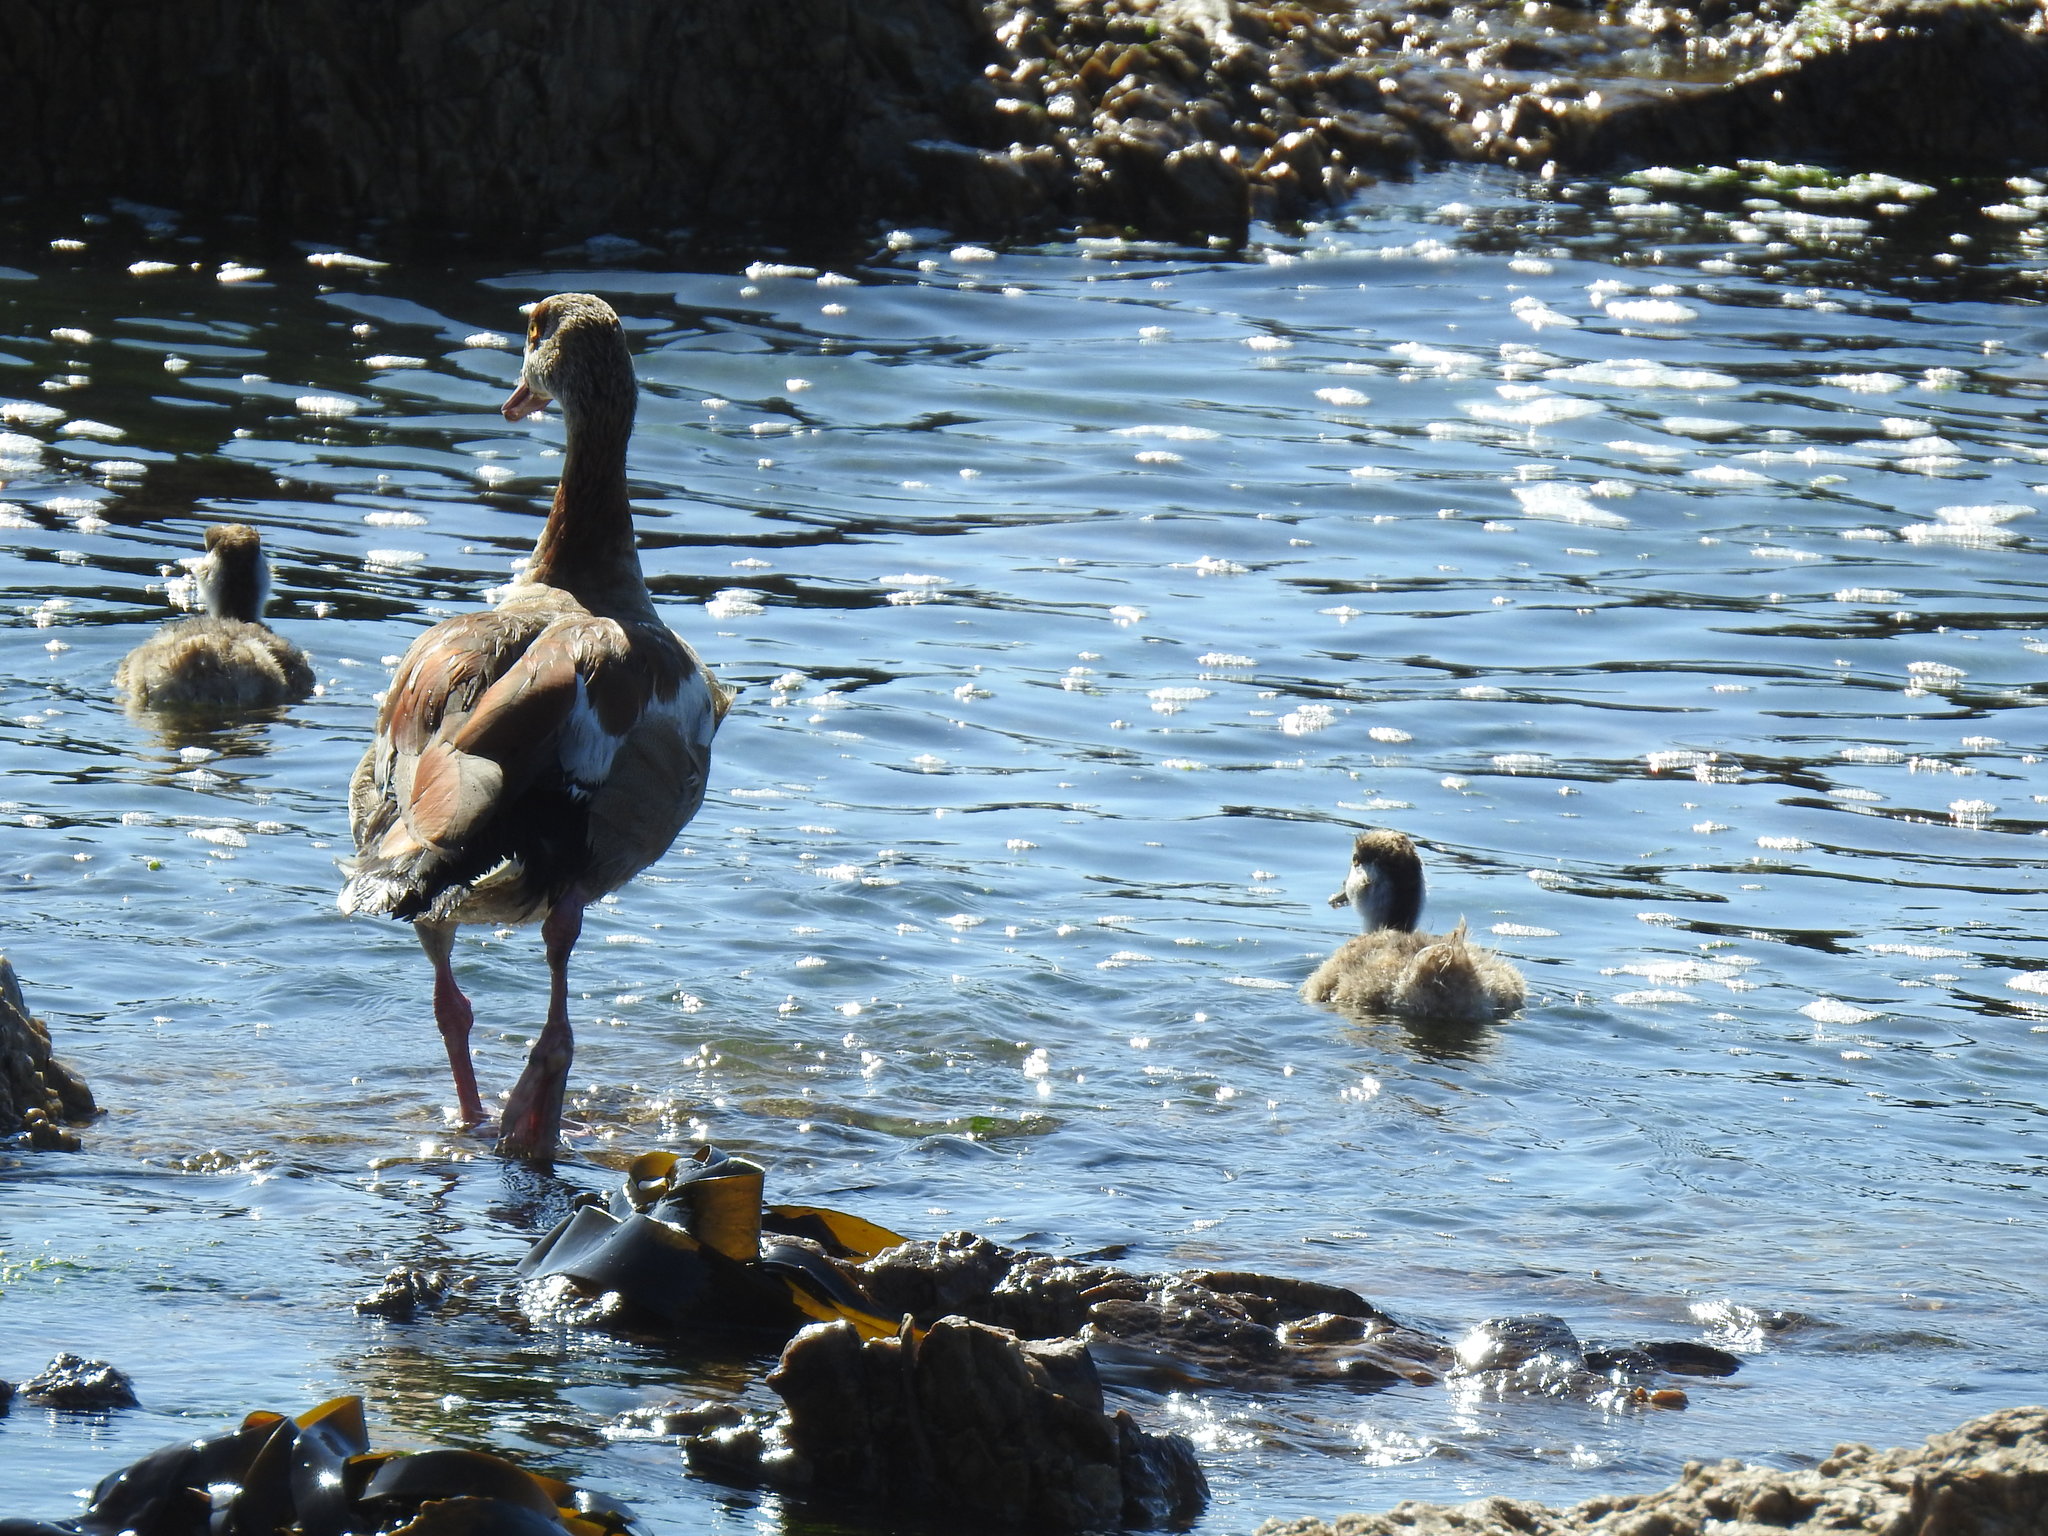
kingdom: Animalia
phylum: Chordata
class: Aves
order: Anseriformes
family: Anatidae
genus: Alopochen
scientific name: Alopochen aegyptiaca
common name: Egyptian goose
